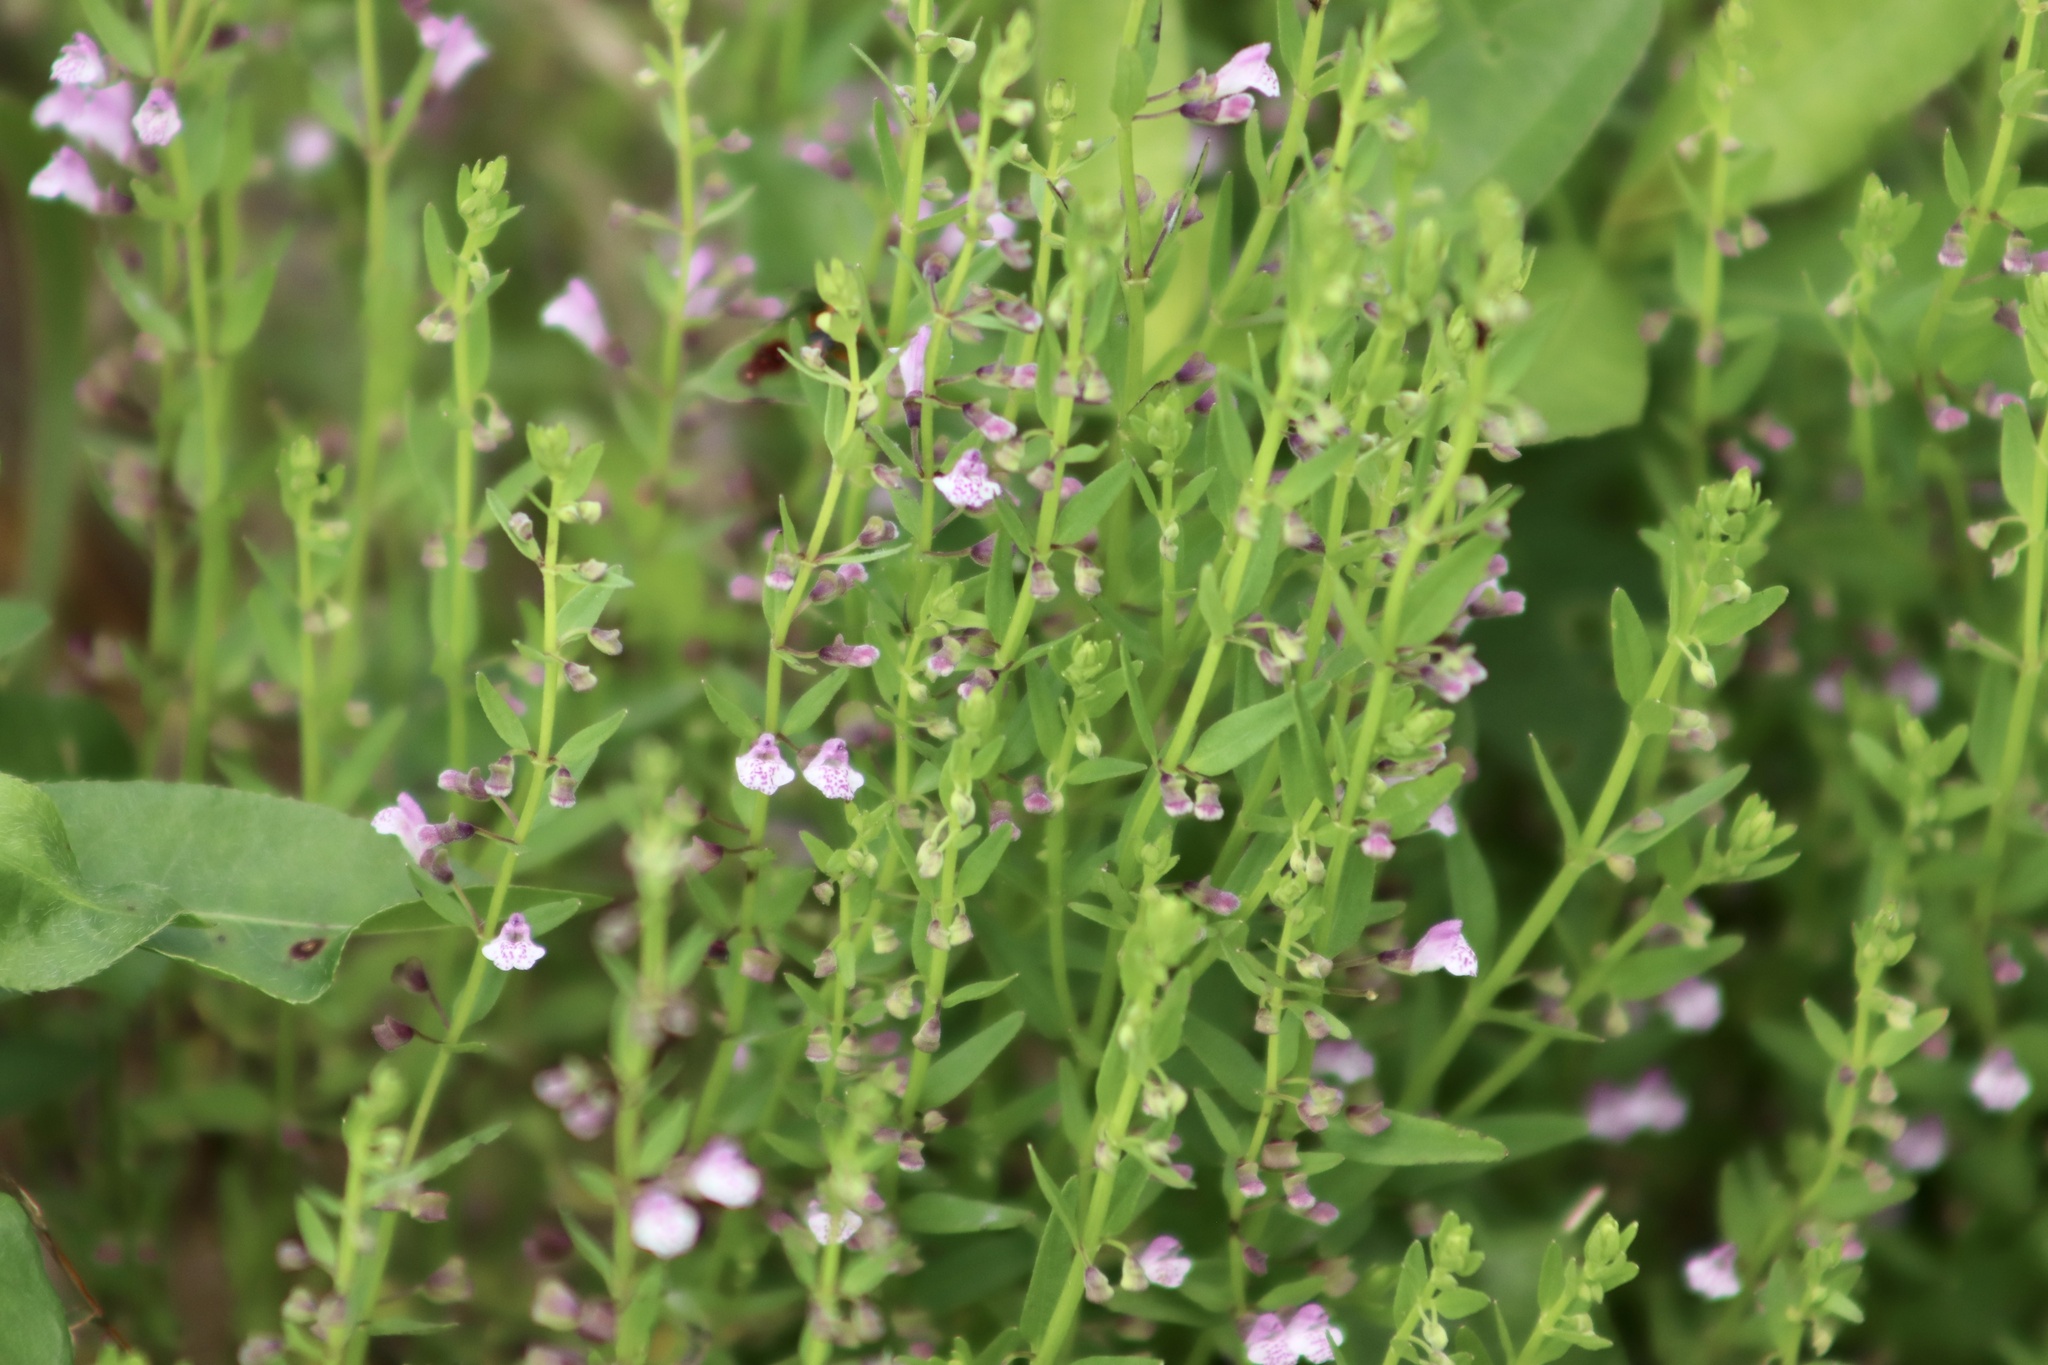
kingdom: Plantae
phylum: Tracheophyta
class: Magnoliopsida
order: Lamiales
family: Lamiaceae
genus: Scutellaria
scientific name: Scutellaria racemosa
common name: South american skullcap
